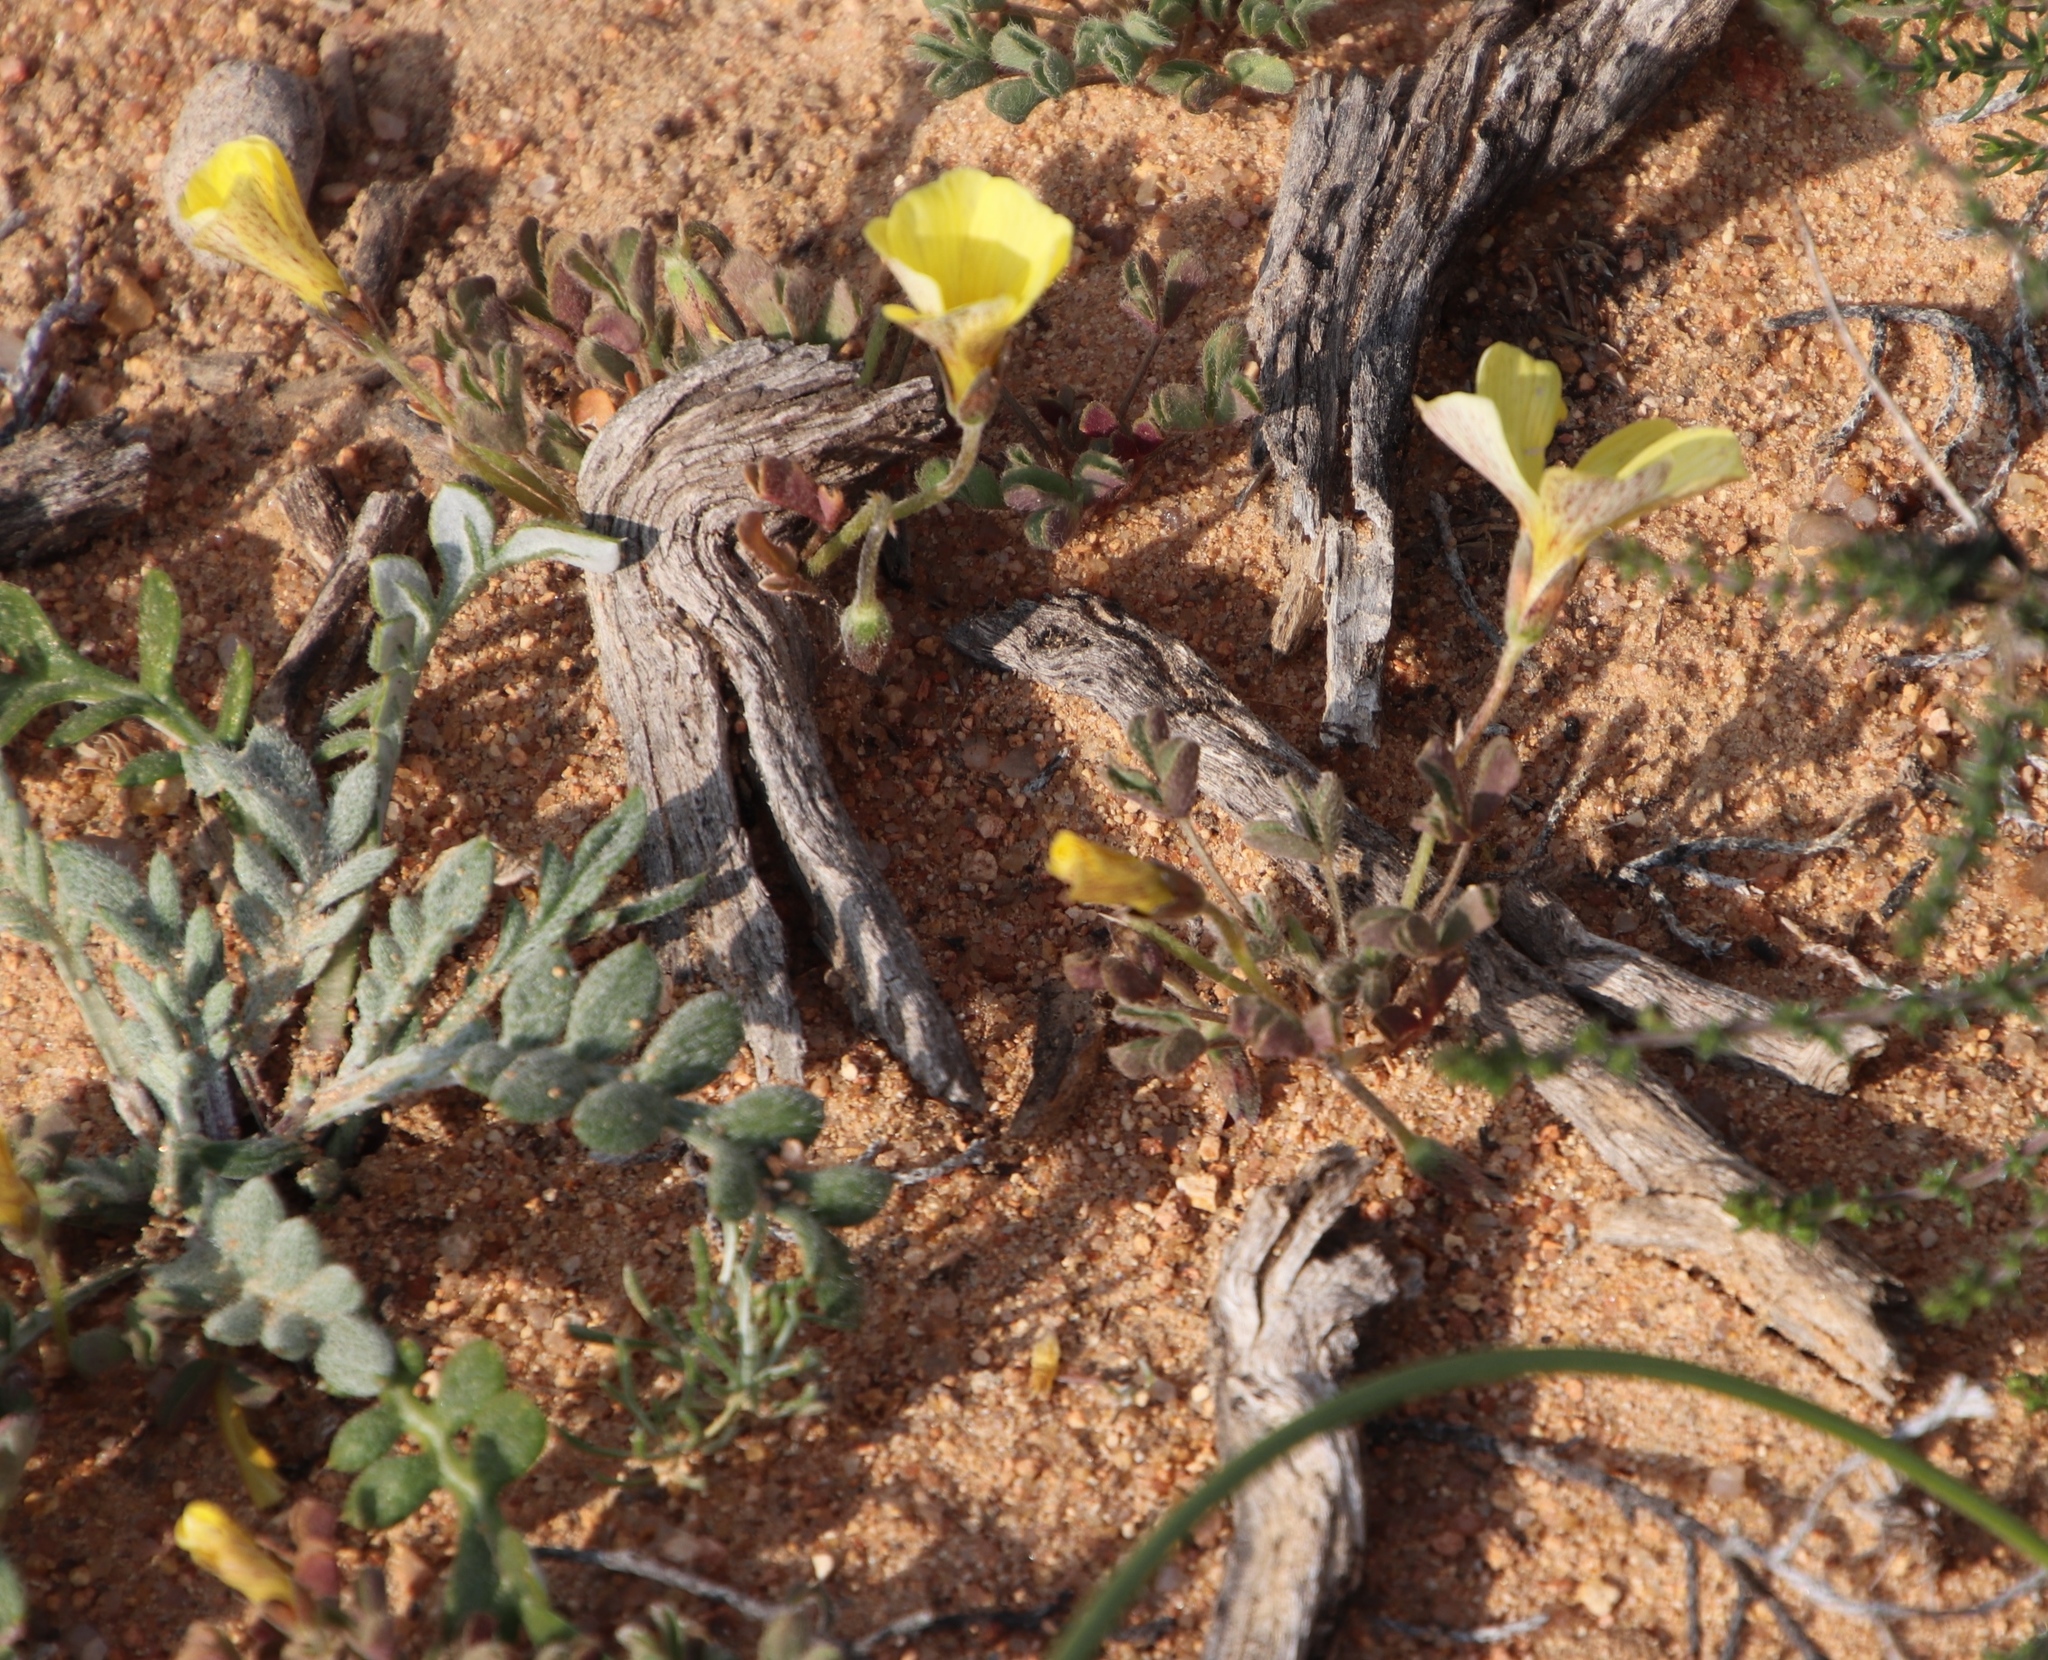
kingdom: Plantae
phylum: Tracheophyta
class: Magnoliopsida
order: Oxalidales
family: Oxalidaceae
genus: Oxalis
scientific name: Oxalis obtusa
